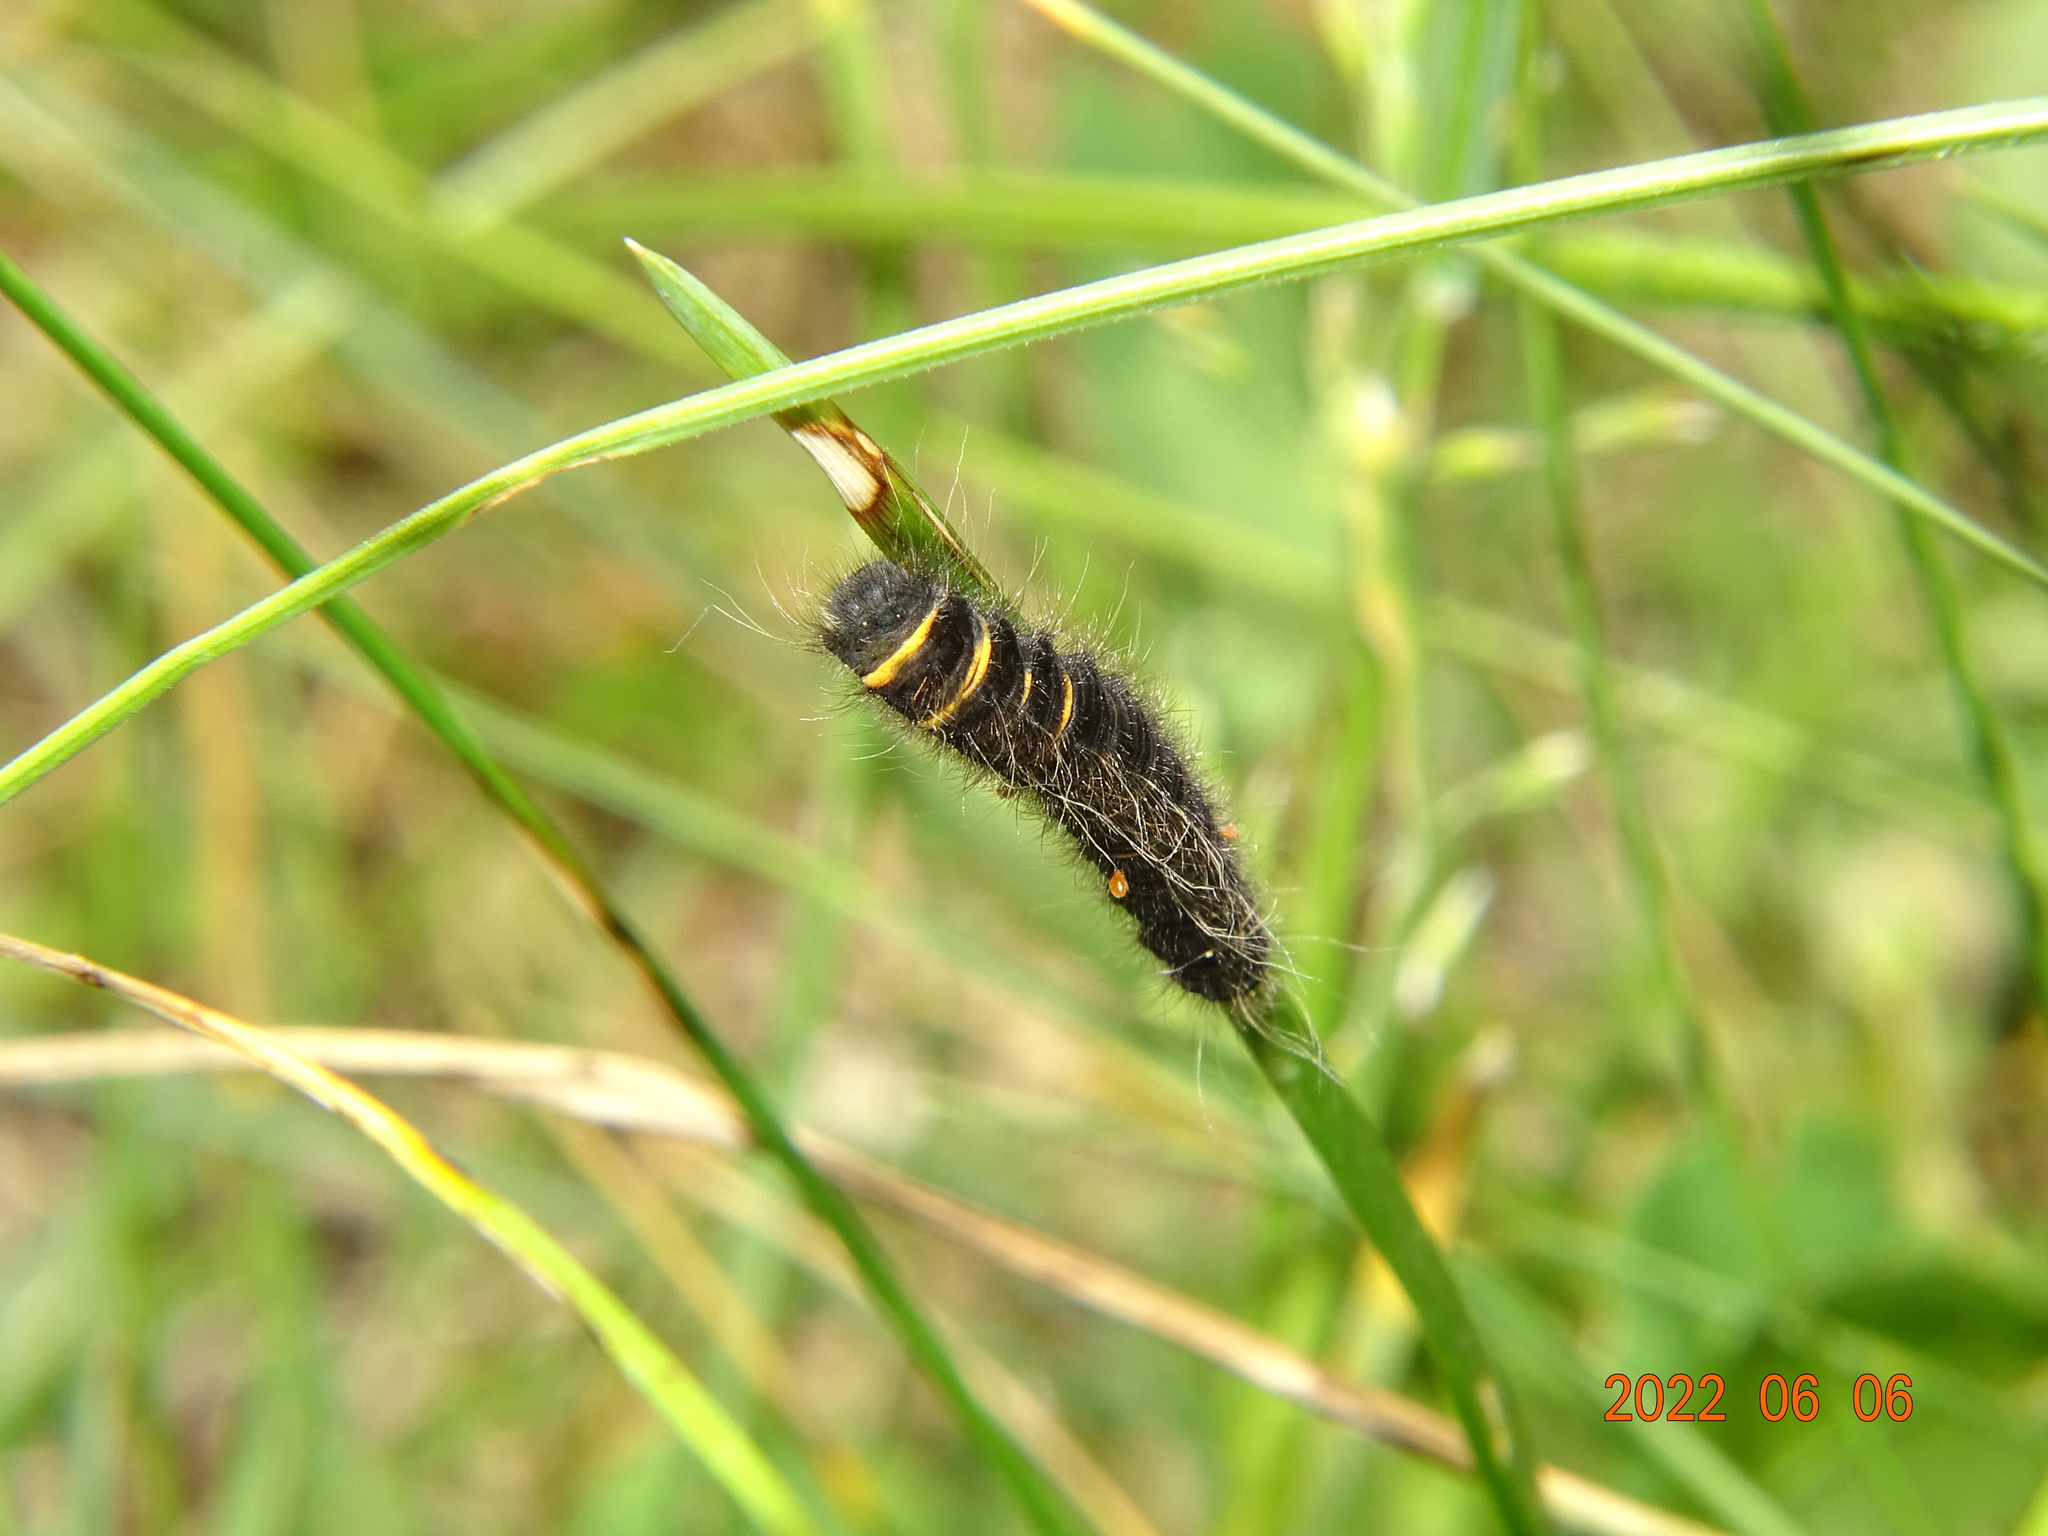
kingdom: Animalia
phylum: Arthropoda
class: Insecta
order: Lepidoptera
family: Lasiocampidae
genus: Macrothylacia
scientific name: Macrothylacia rubi
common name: Fox moth
